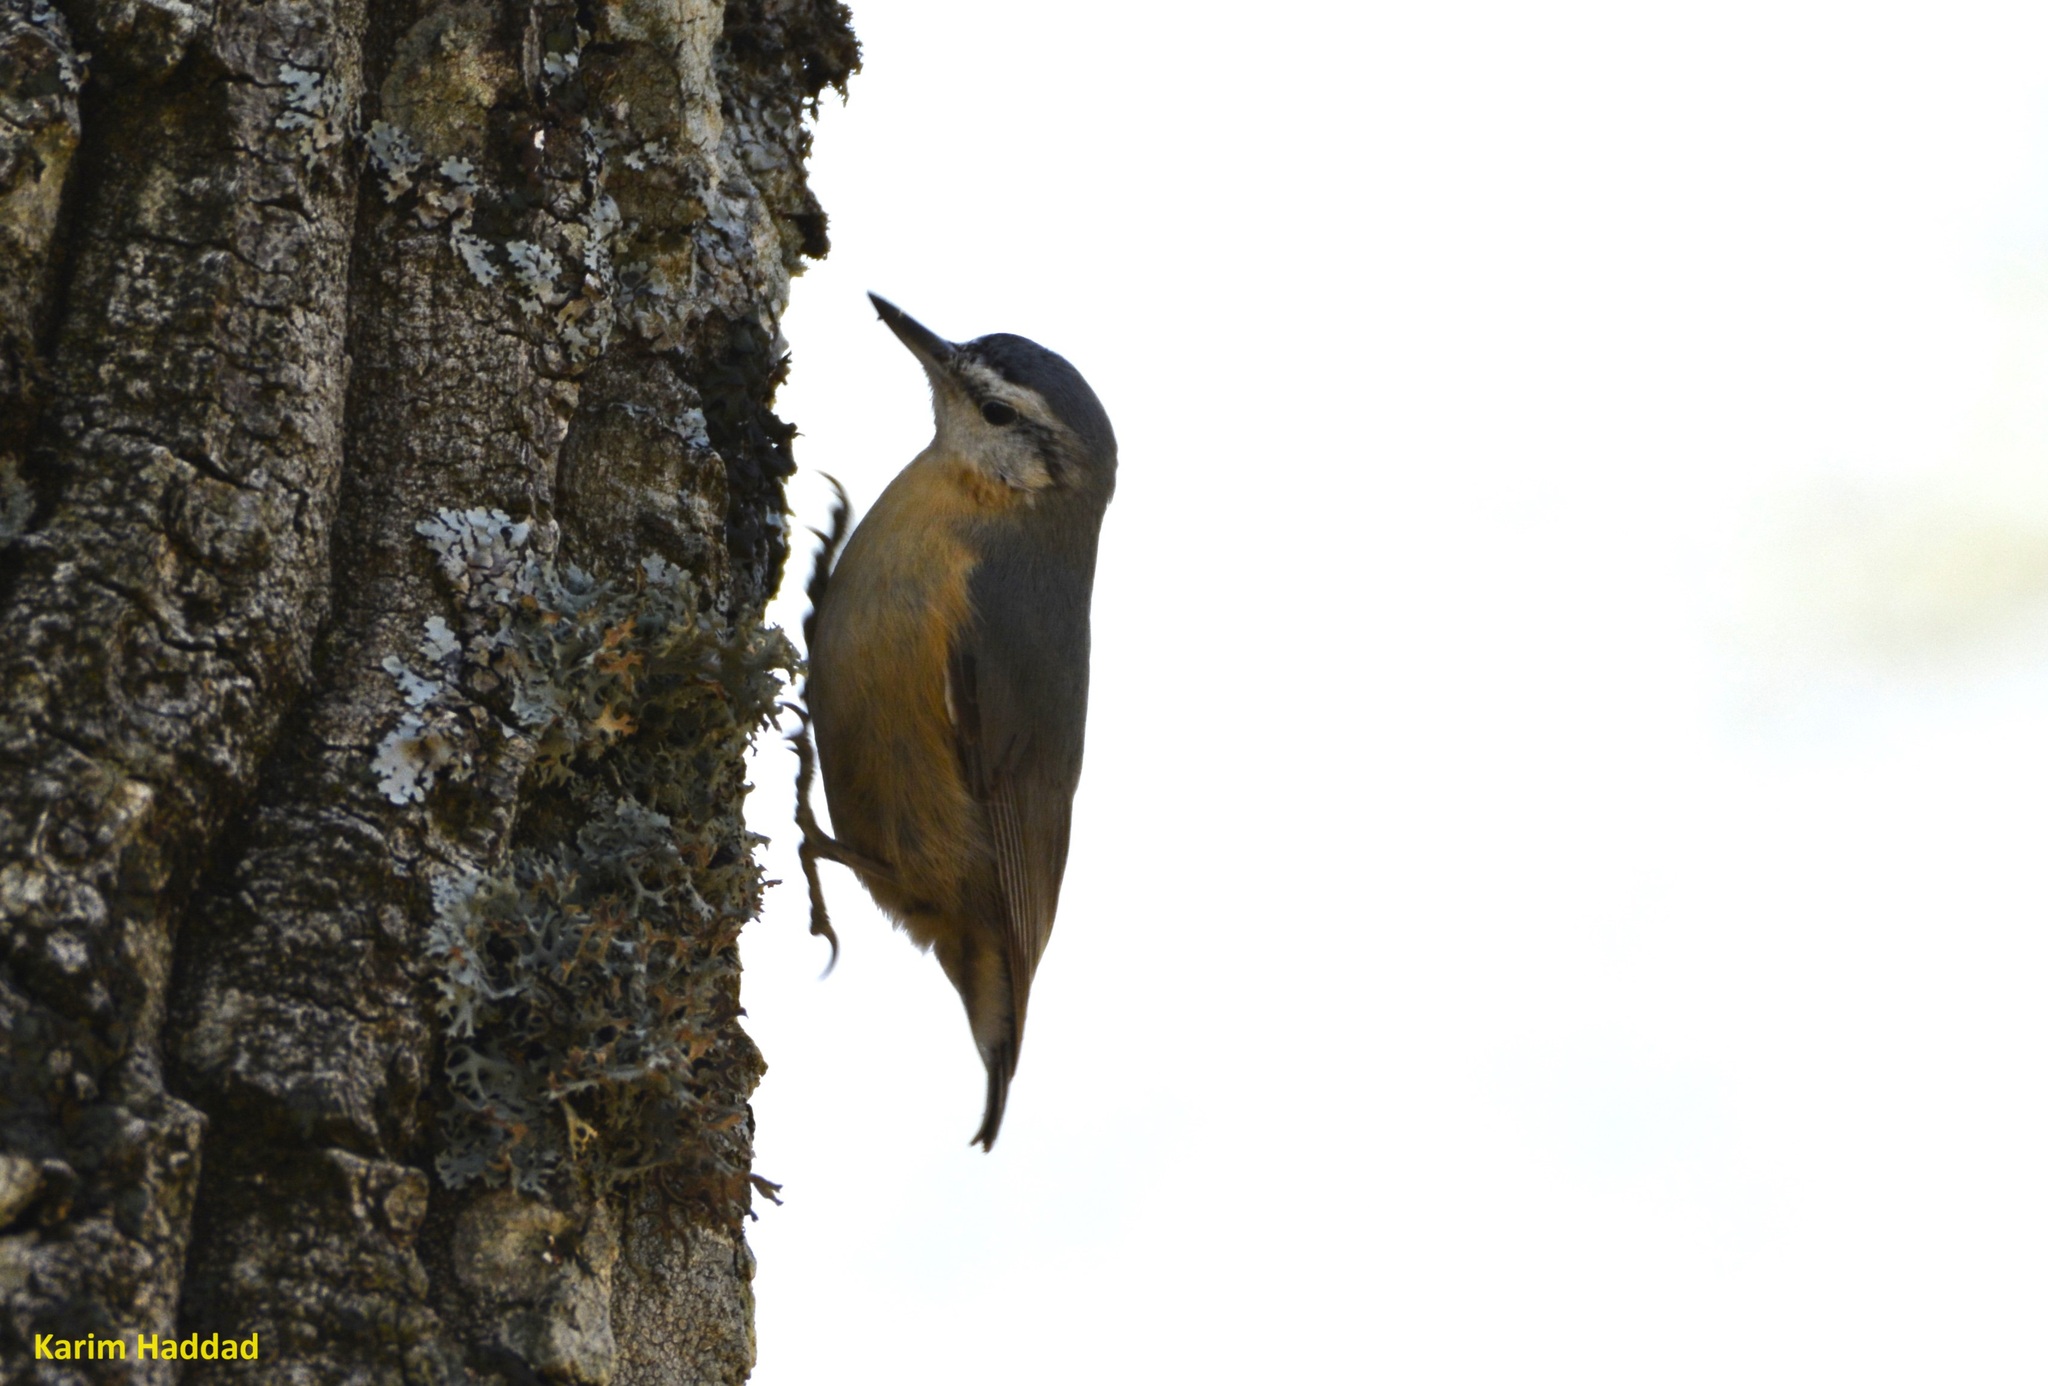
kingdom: Animalia
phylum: Chordata
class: Aves
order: Passeriformes
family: Sittidae
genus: Sitta
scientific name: Sitta ledanti
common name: Algerian nuthatch
